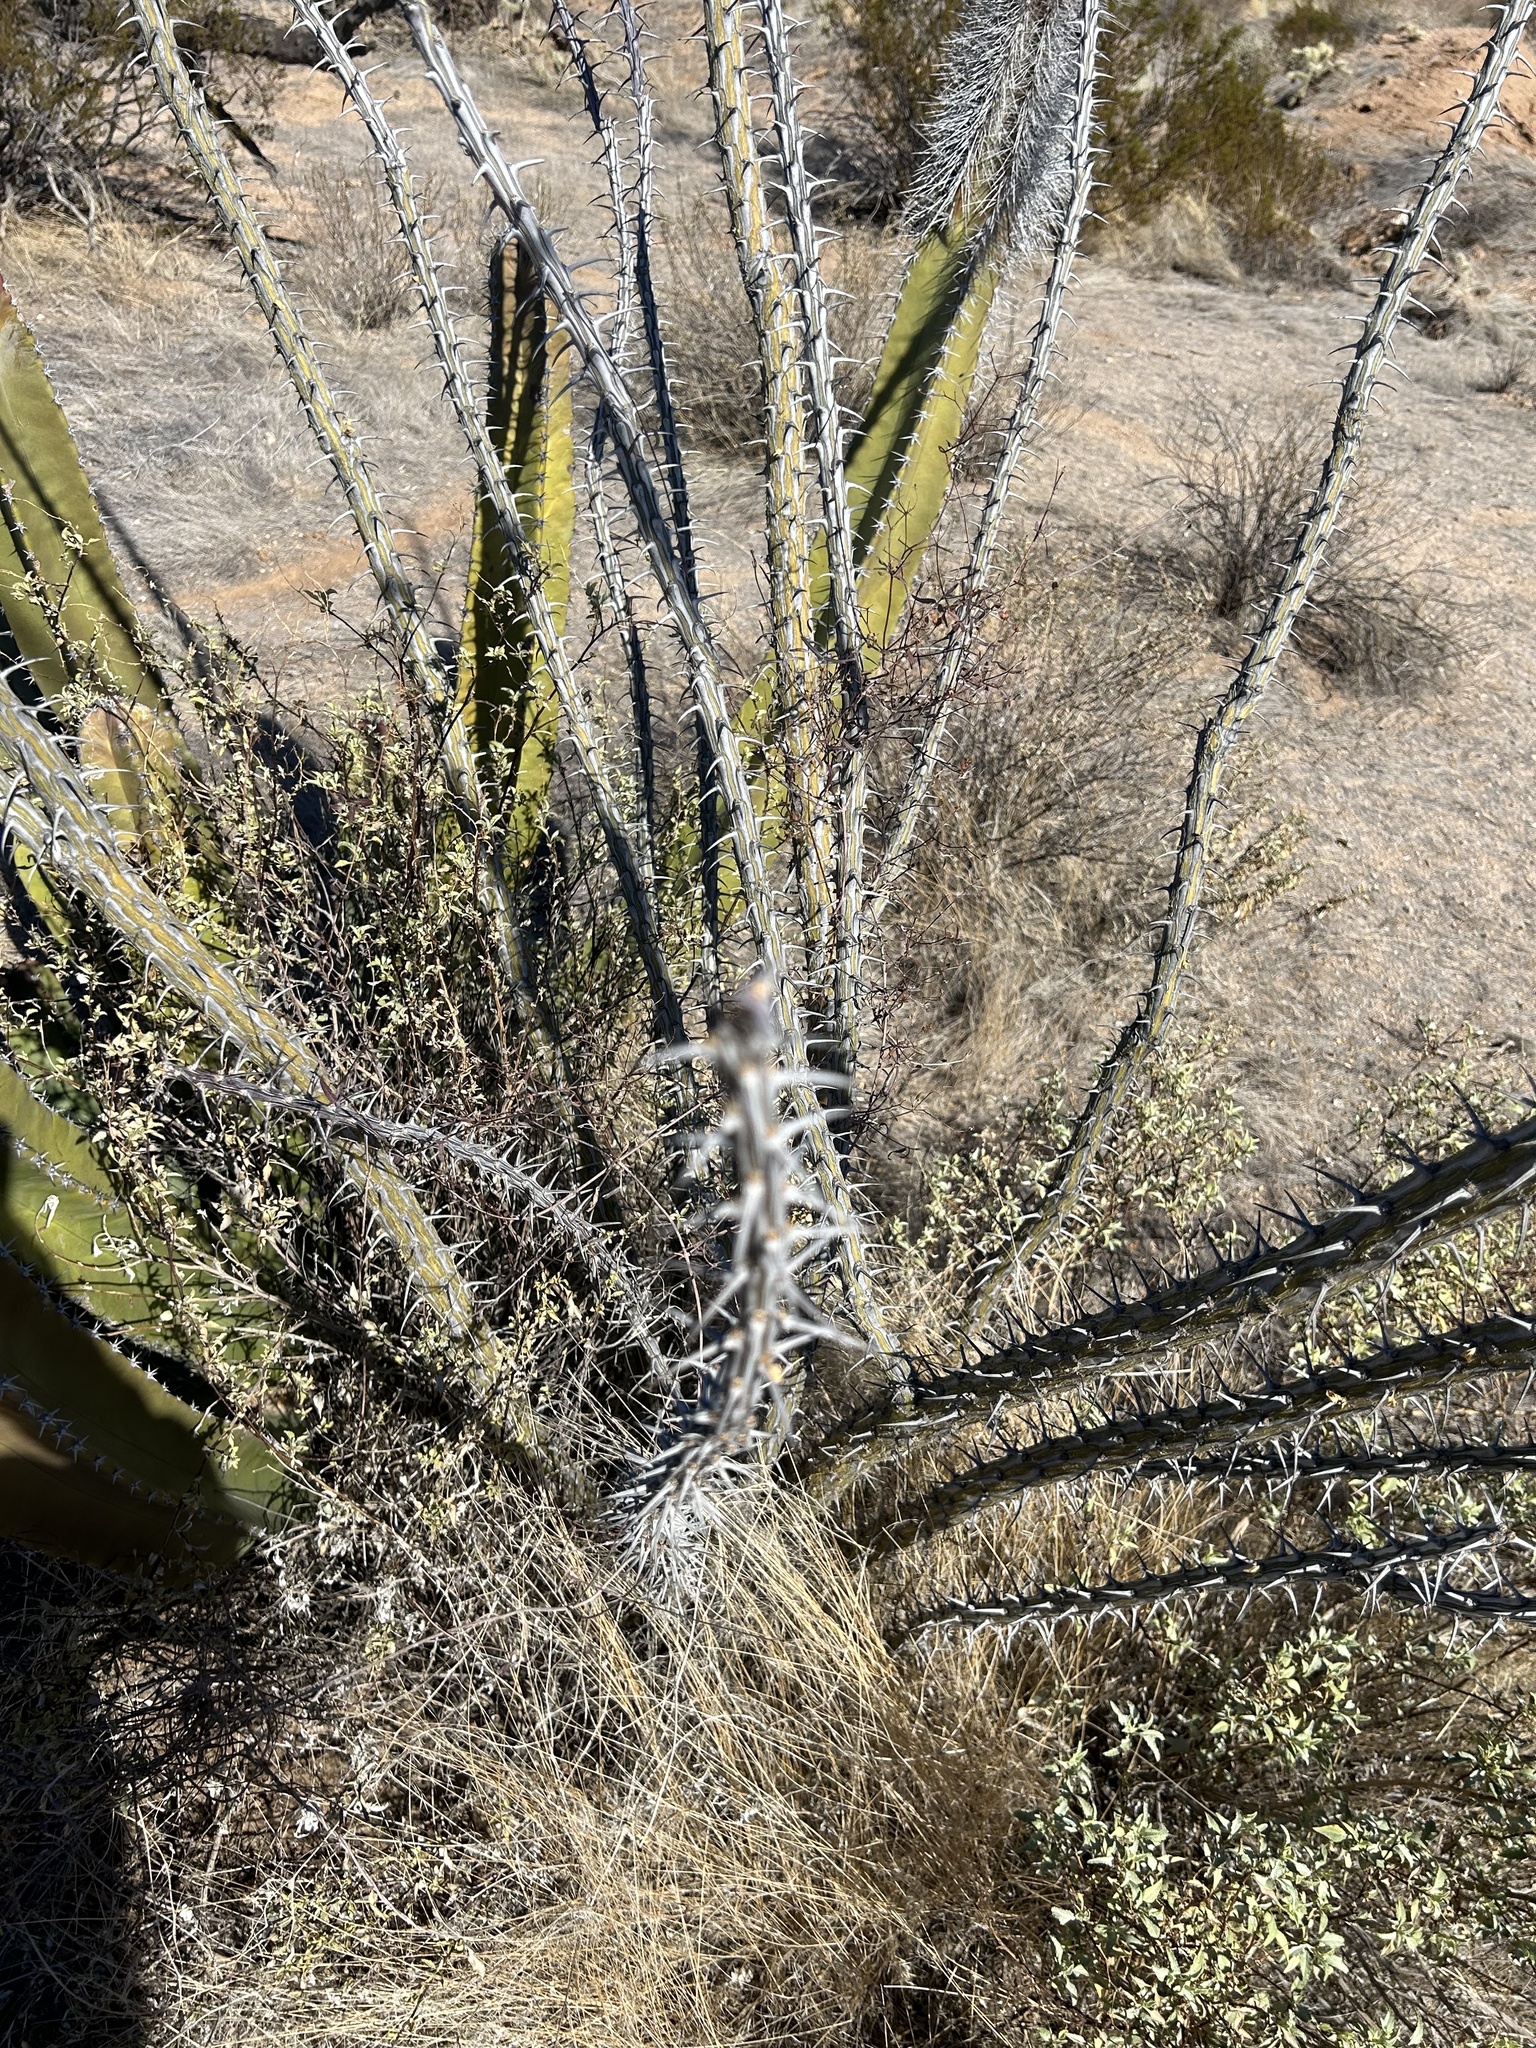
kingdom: Plantae
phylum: Tracheophyta
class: Magnoliopsida
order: Ericales
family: Fouquieriaceae
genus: Fouquieria
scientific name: Fouquieria splendens
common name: Vine-cactus
